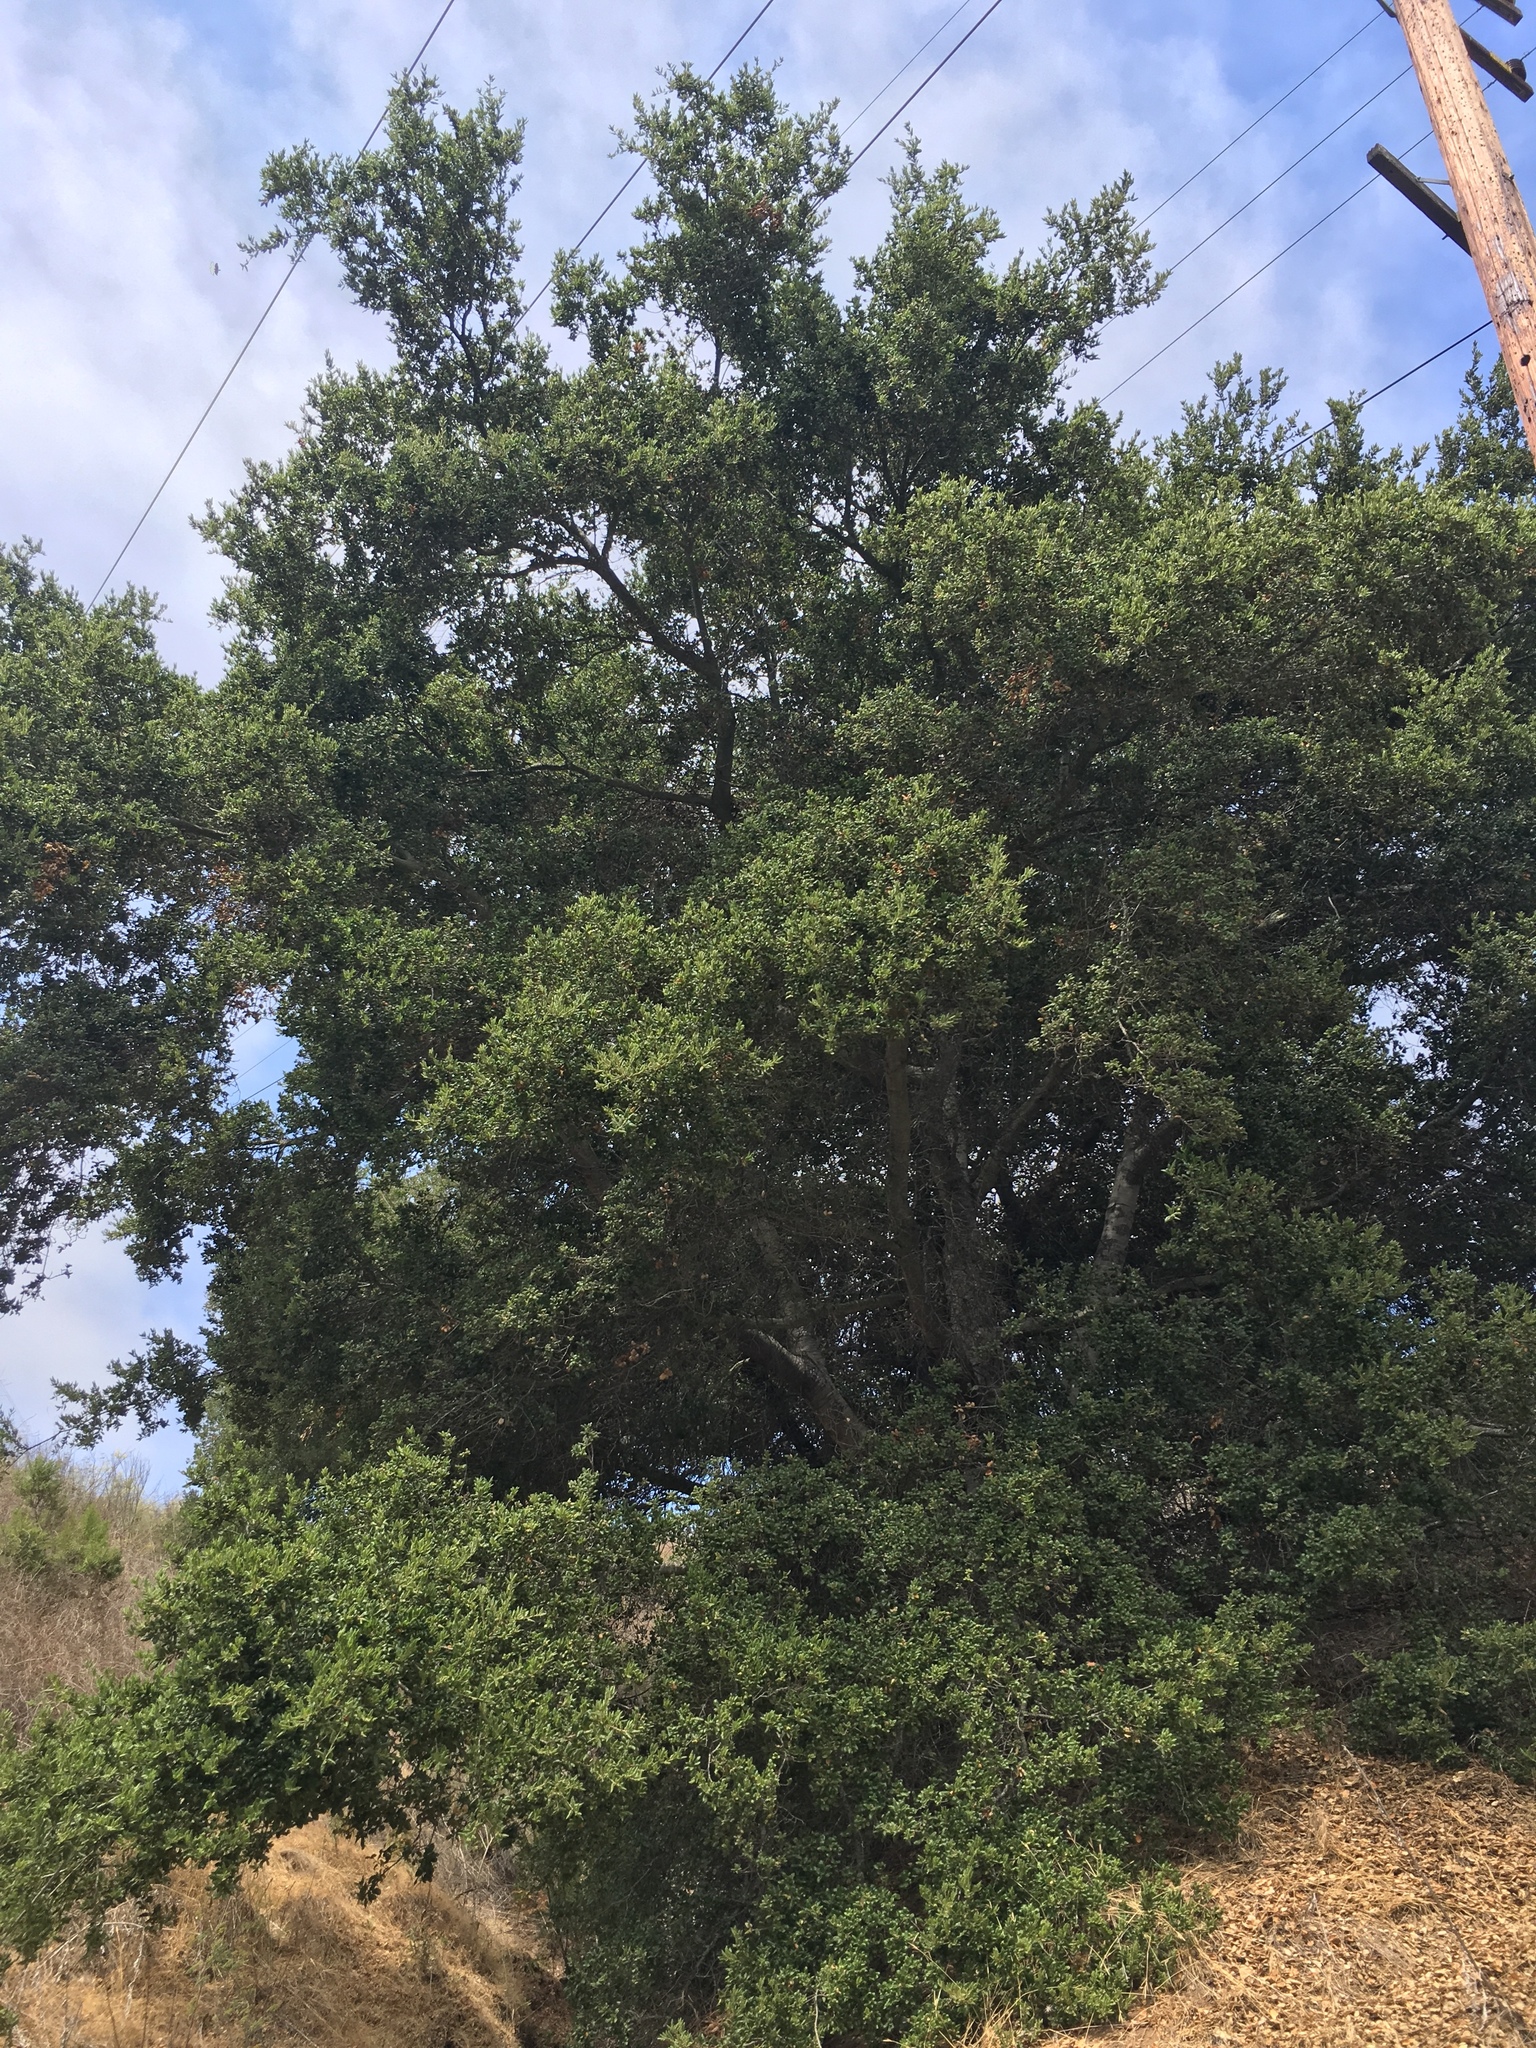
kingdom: Plantae
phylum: Tracheophyta
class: Magnoliopsida
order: Fagales
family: Fagaceae
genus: Quercus
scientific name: Quercus agrifolia
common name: California live oak
